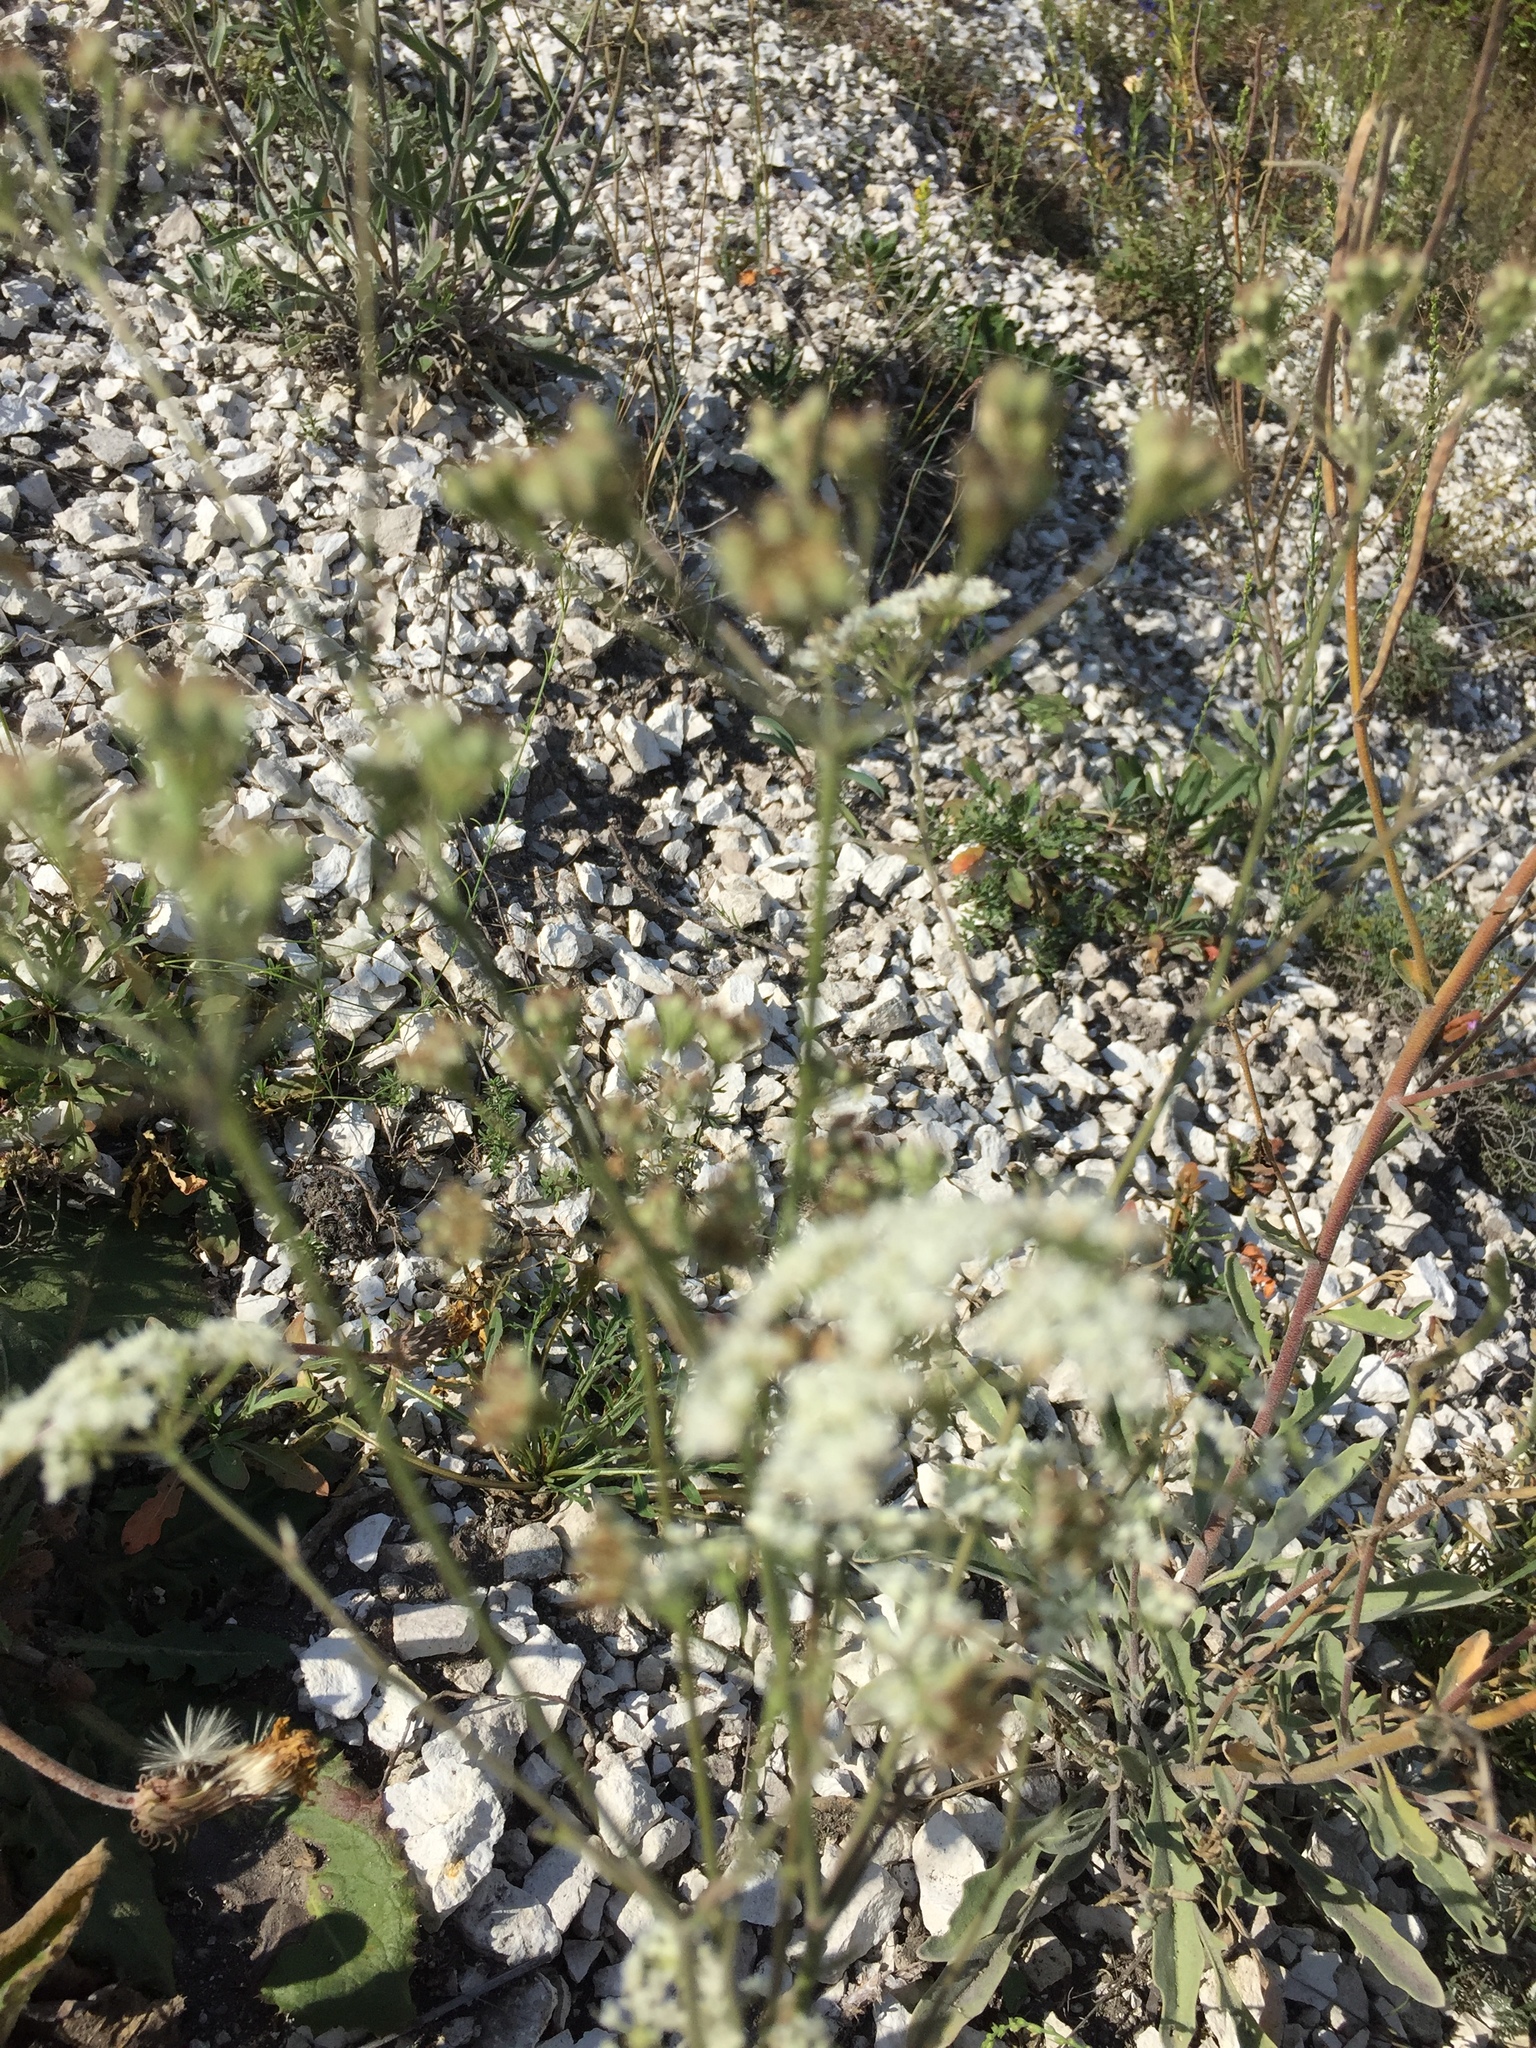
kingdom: Plantae
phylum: Tracheophyta
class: Magnoliopsida
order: Apiales
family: Apiaceae
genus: Pimpinella
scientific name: Pimpinella tragium
